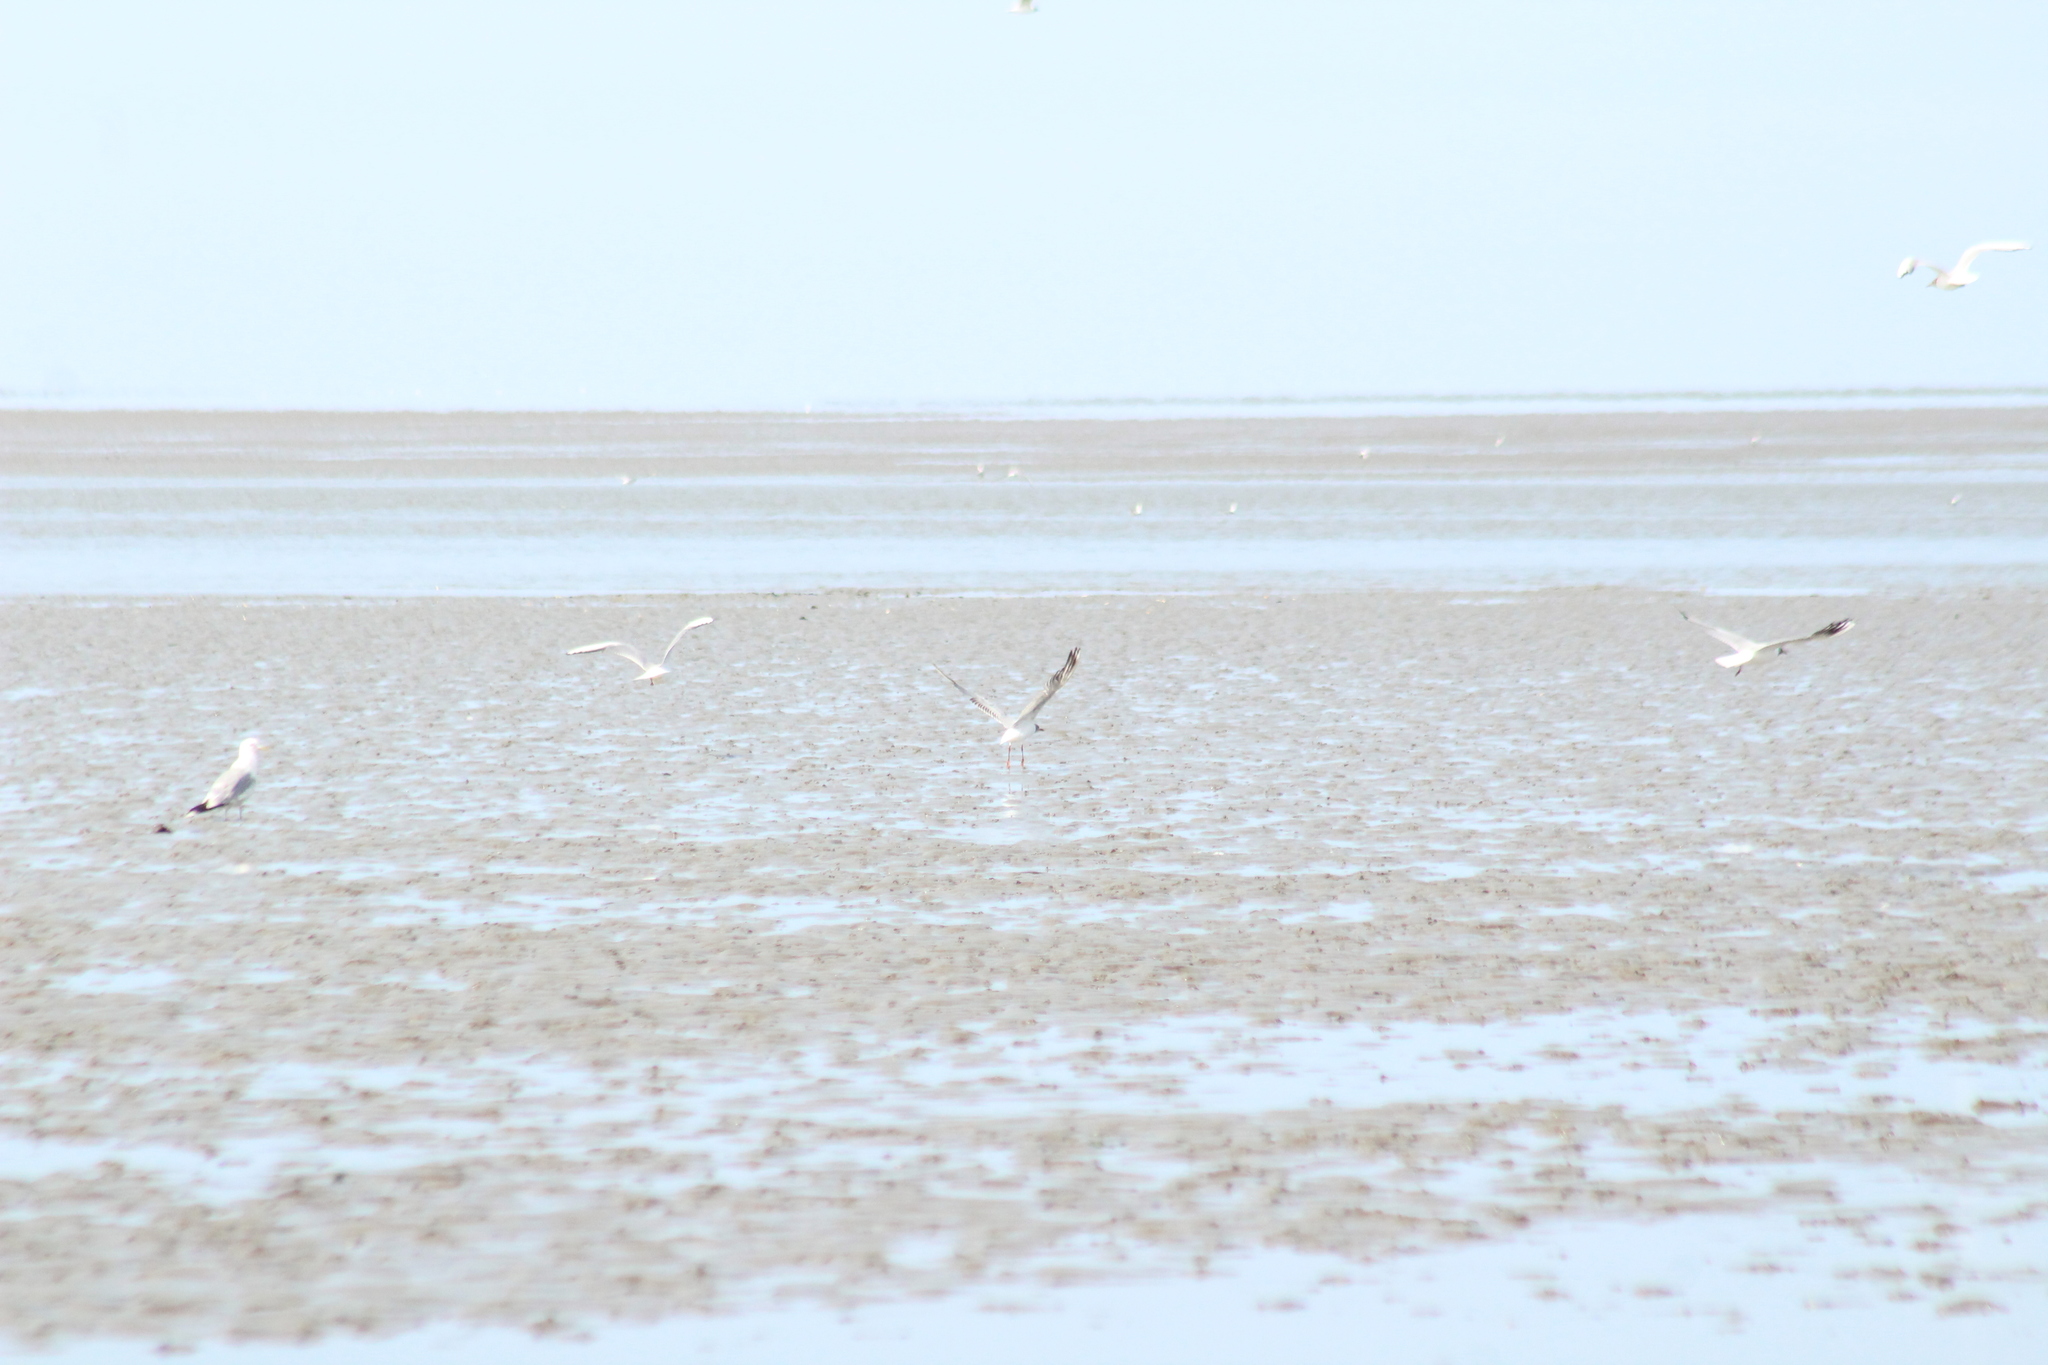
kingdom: Animalia
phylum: Chordata
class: Aves
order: Charadriiformes
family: Laridae
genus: Chroicocephalus
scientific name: Chroicocephalus ridibundus
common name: Black-headed gull
